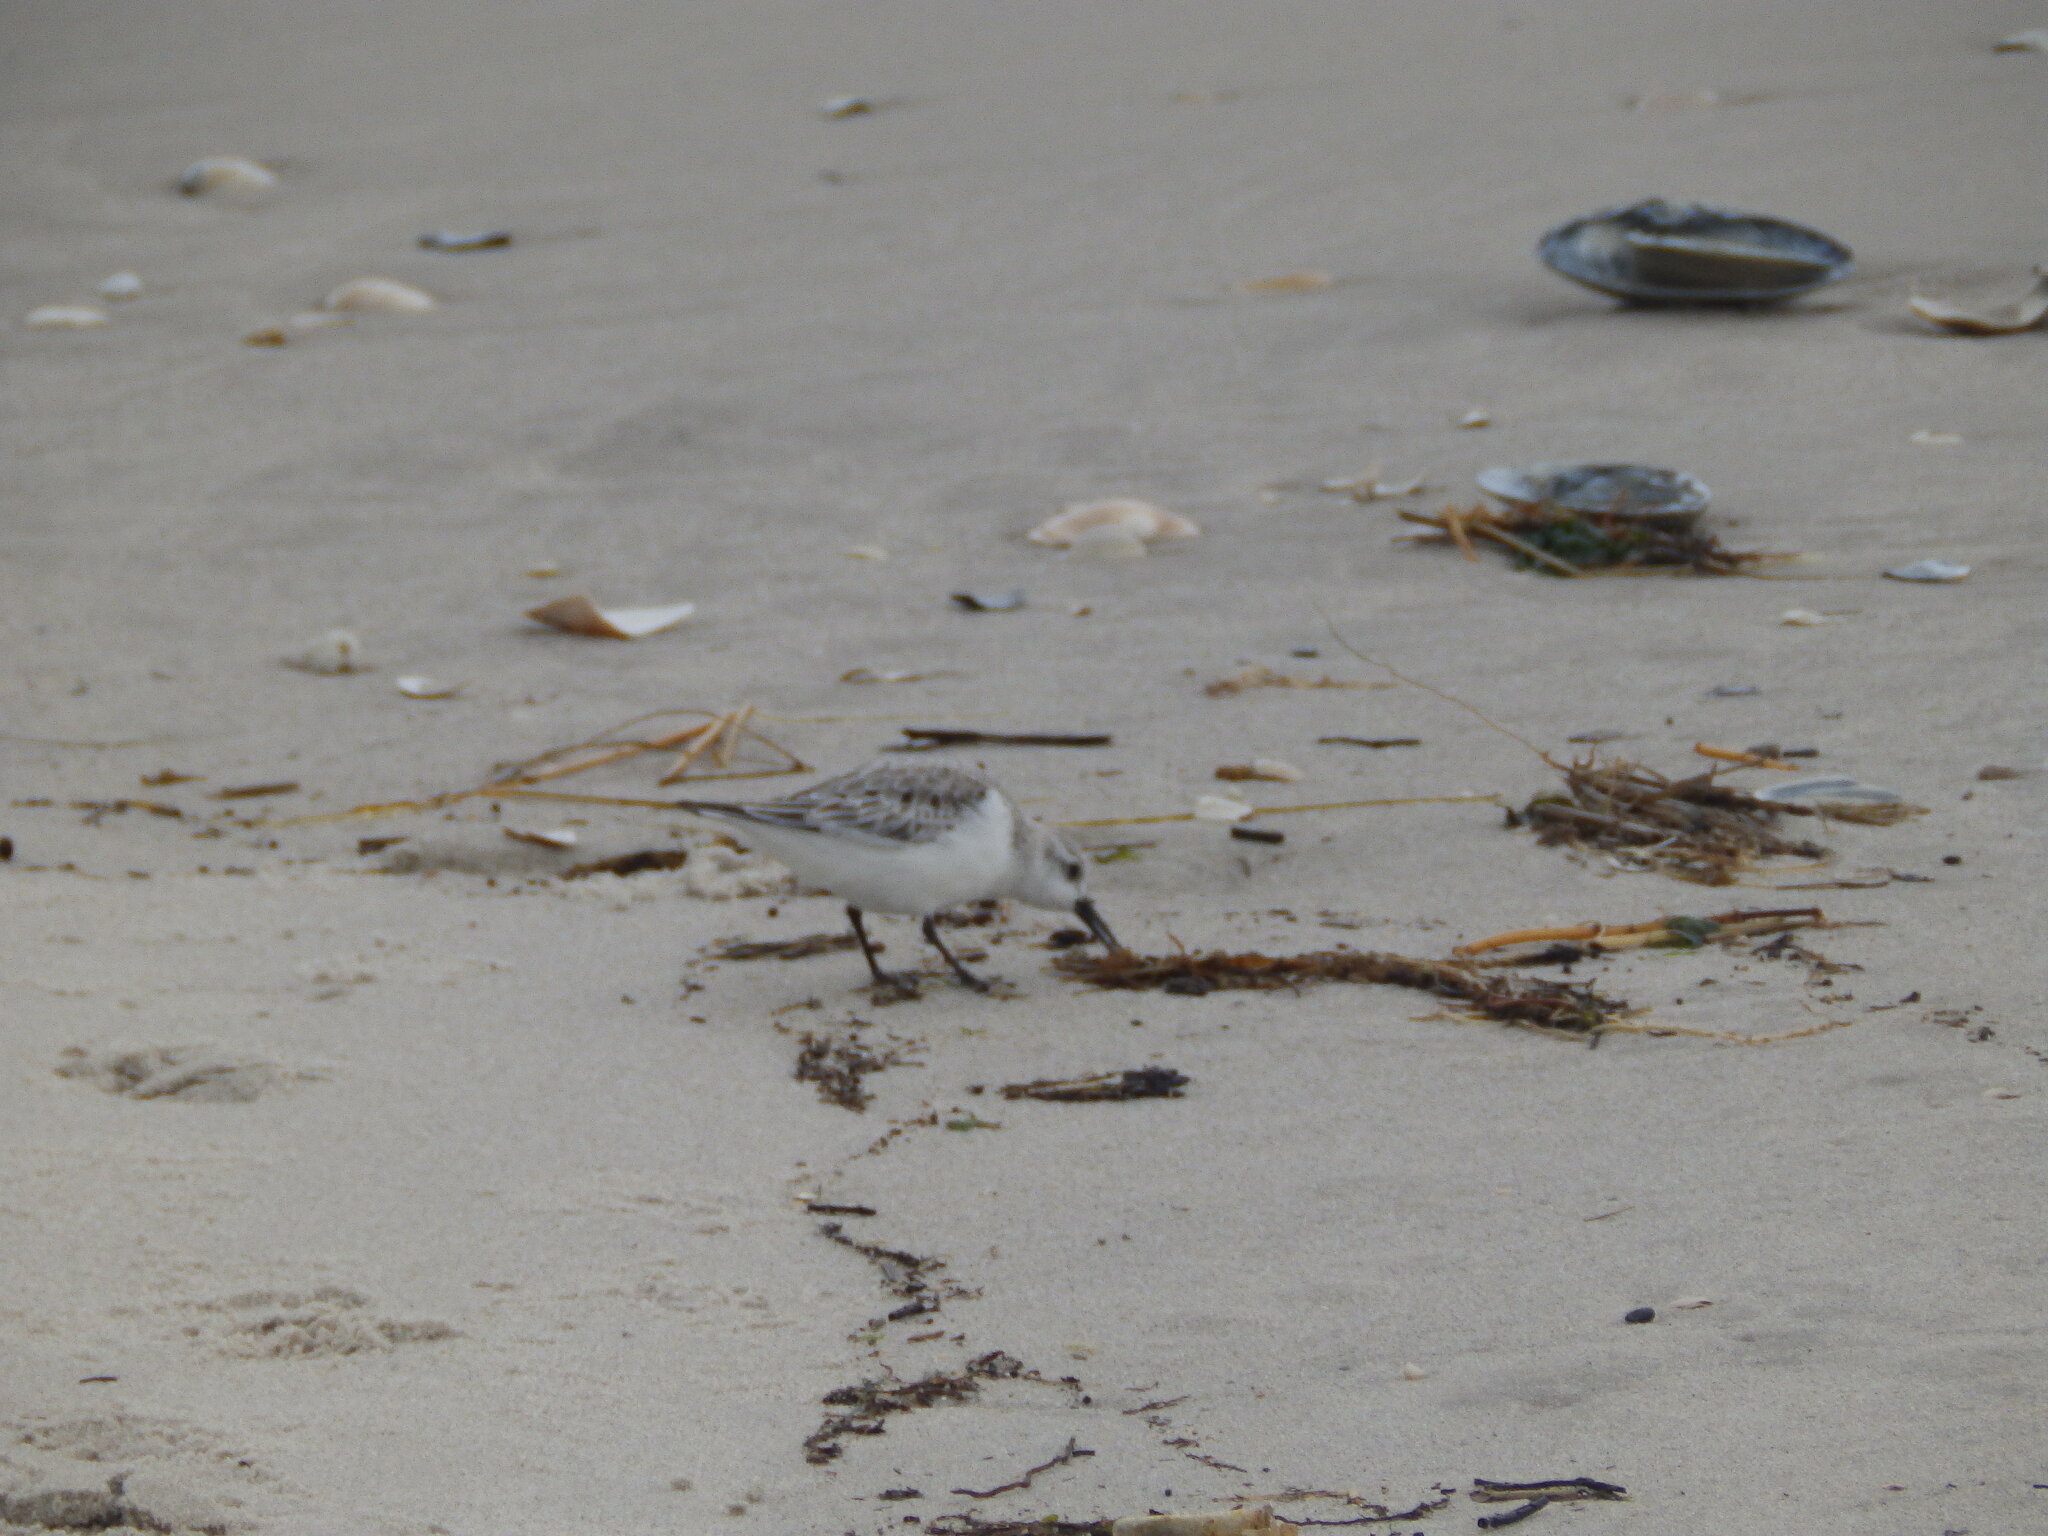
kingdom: Animalia
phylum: Chordata
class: Aves
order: Charadriiformes
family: Scolopacidae
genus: Calidris
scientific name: Calidris alba
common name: Sanderling
